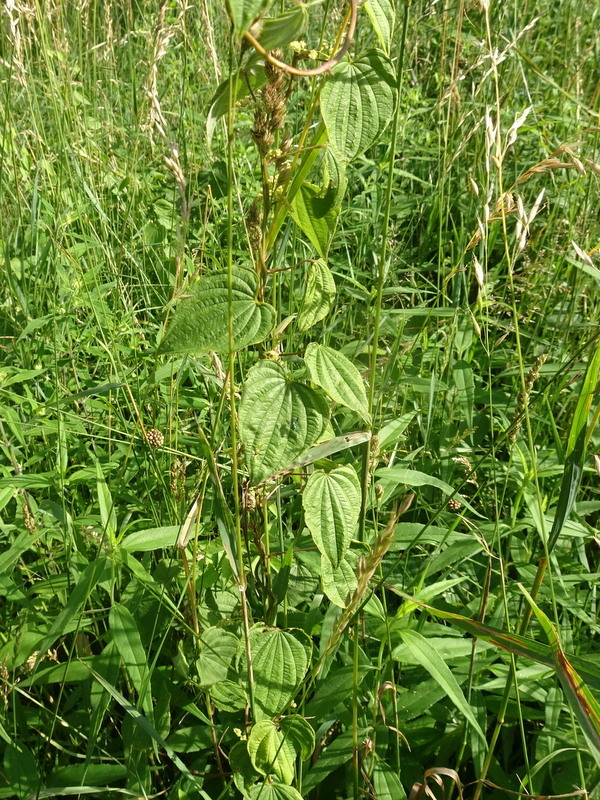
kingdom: Plantae
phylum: Tracheophyta
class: Liliopsida
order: Dioscoreales
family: Dioscoreaceae
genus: Dioscorea
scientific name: Dioscorea villosa
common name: Wild yam
